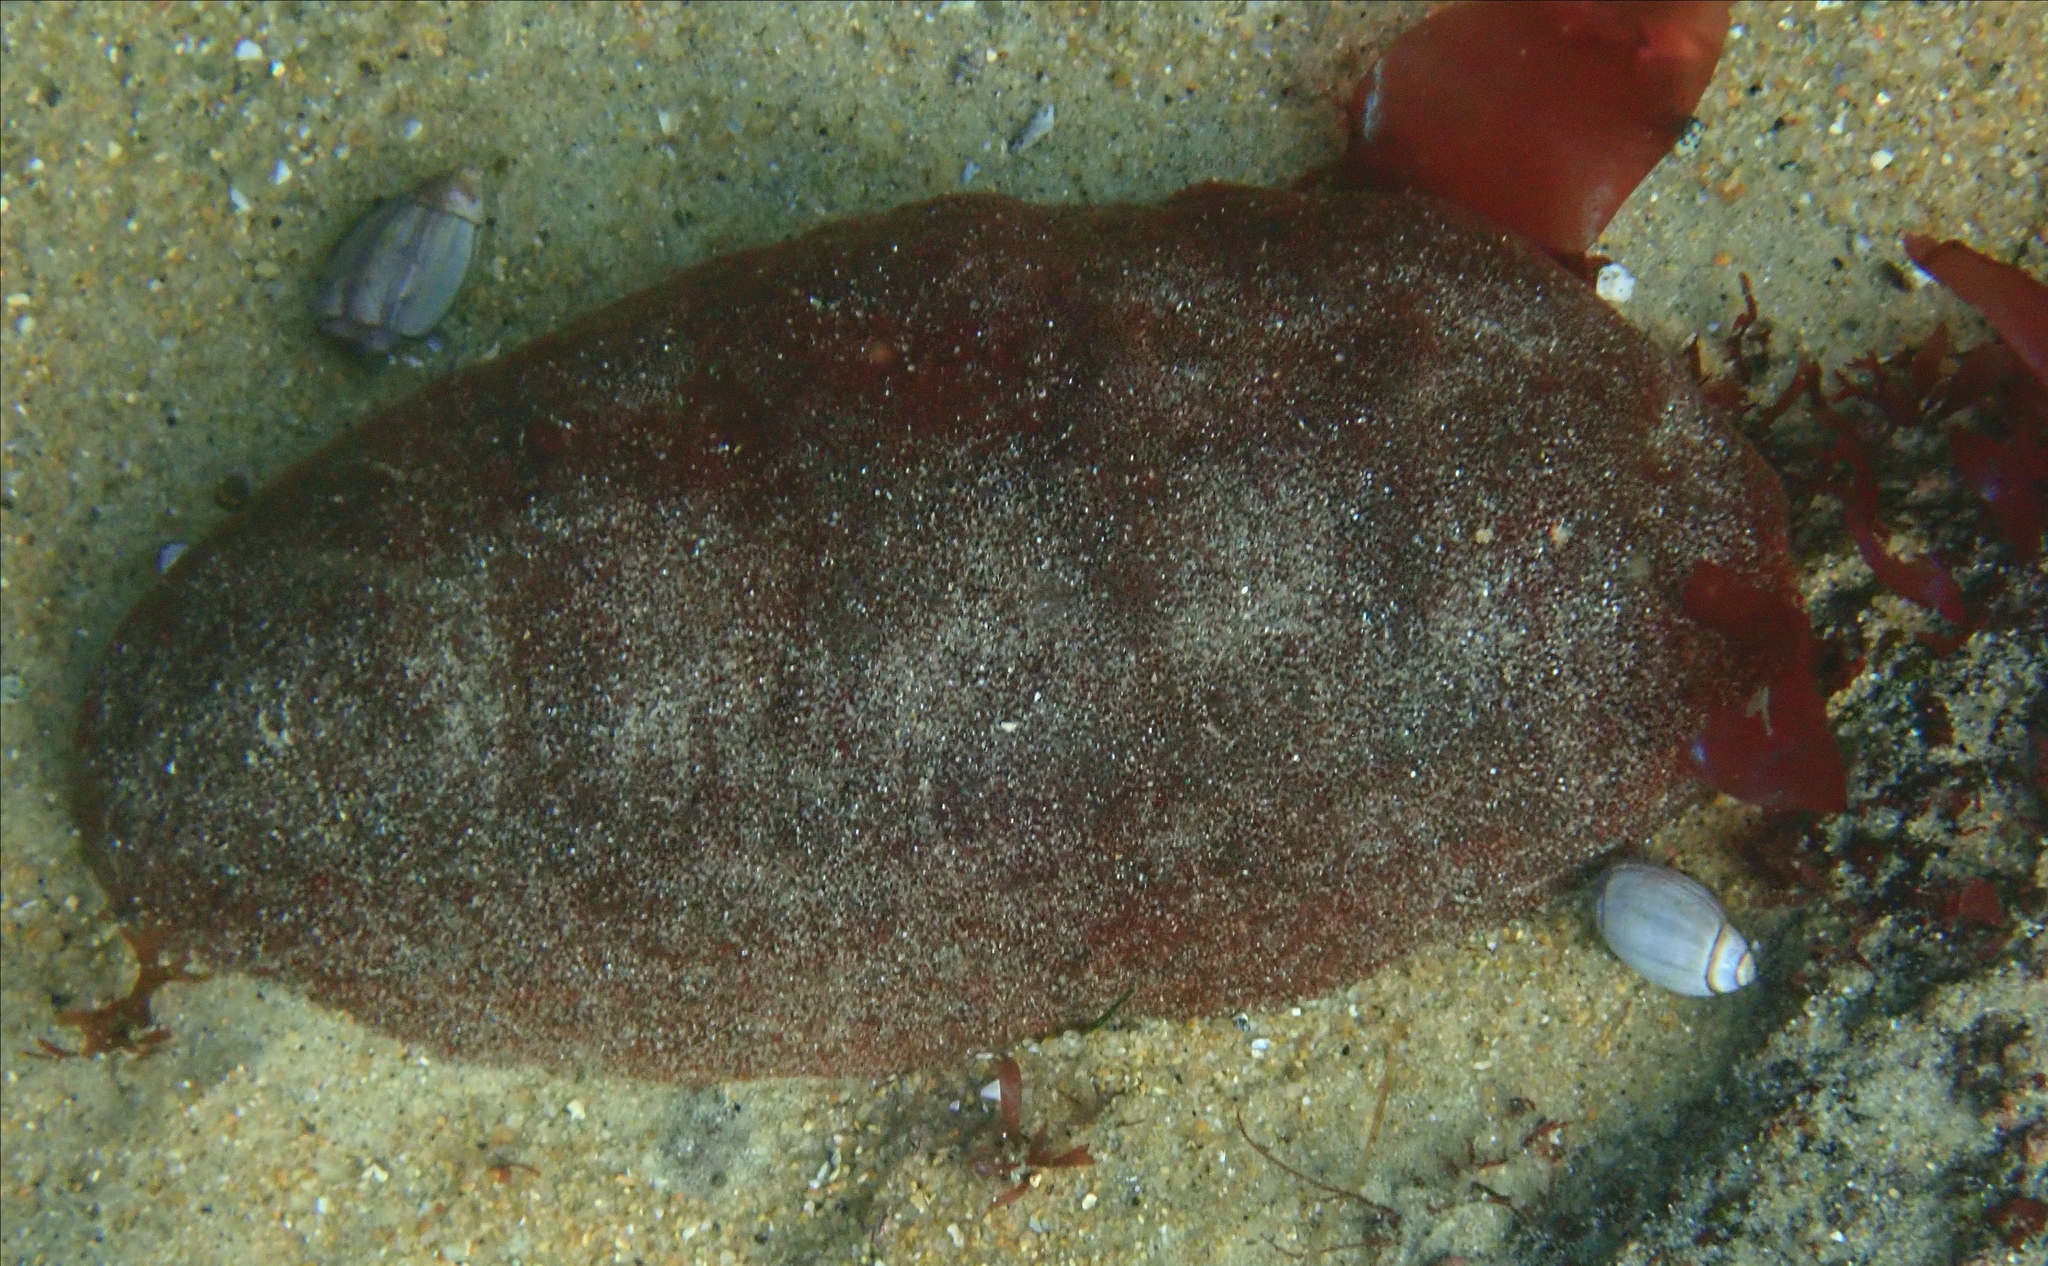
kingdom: Animalia
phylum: Mollusca
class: Polyplacophora
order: Chitonida
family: Acanthochitonidae
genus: Cryptochiton
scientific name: Cryptochiton stelleri
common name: Giant pacific chiton
